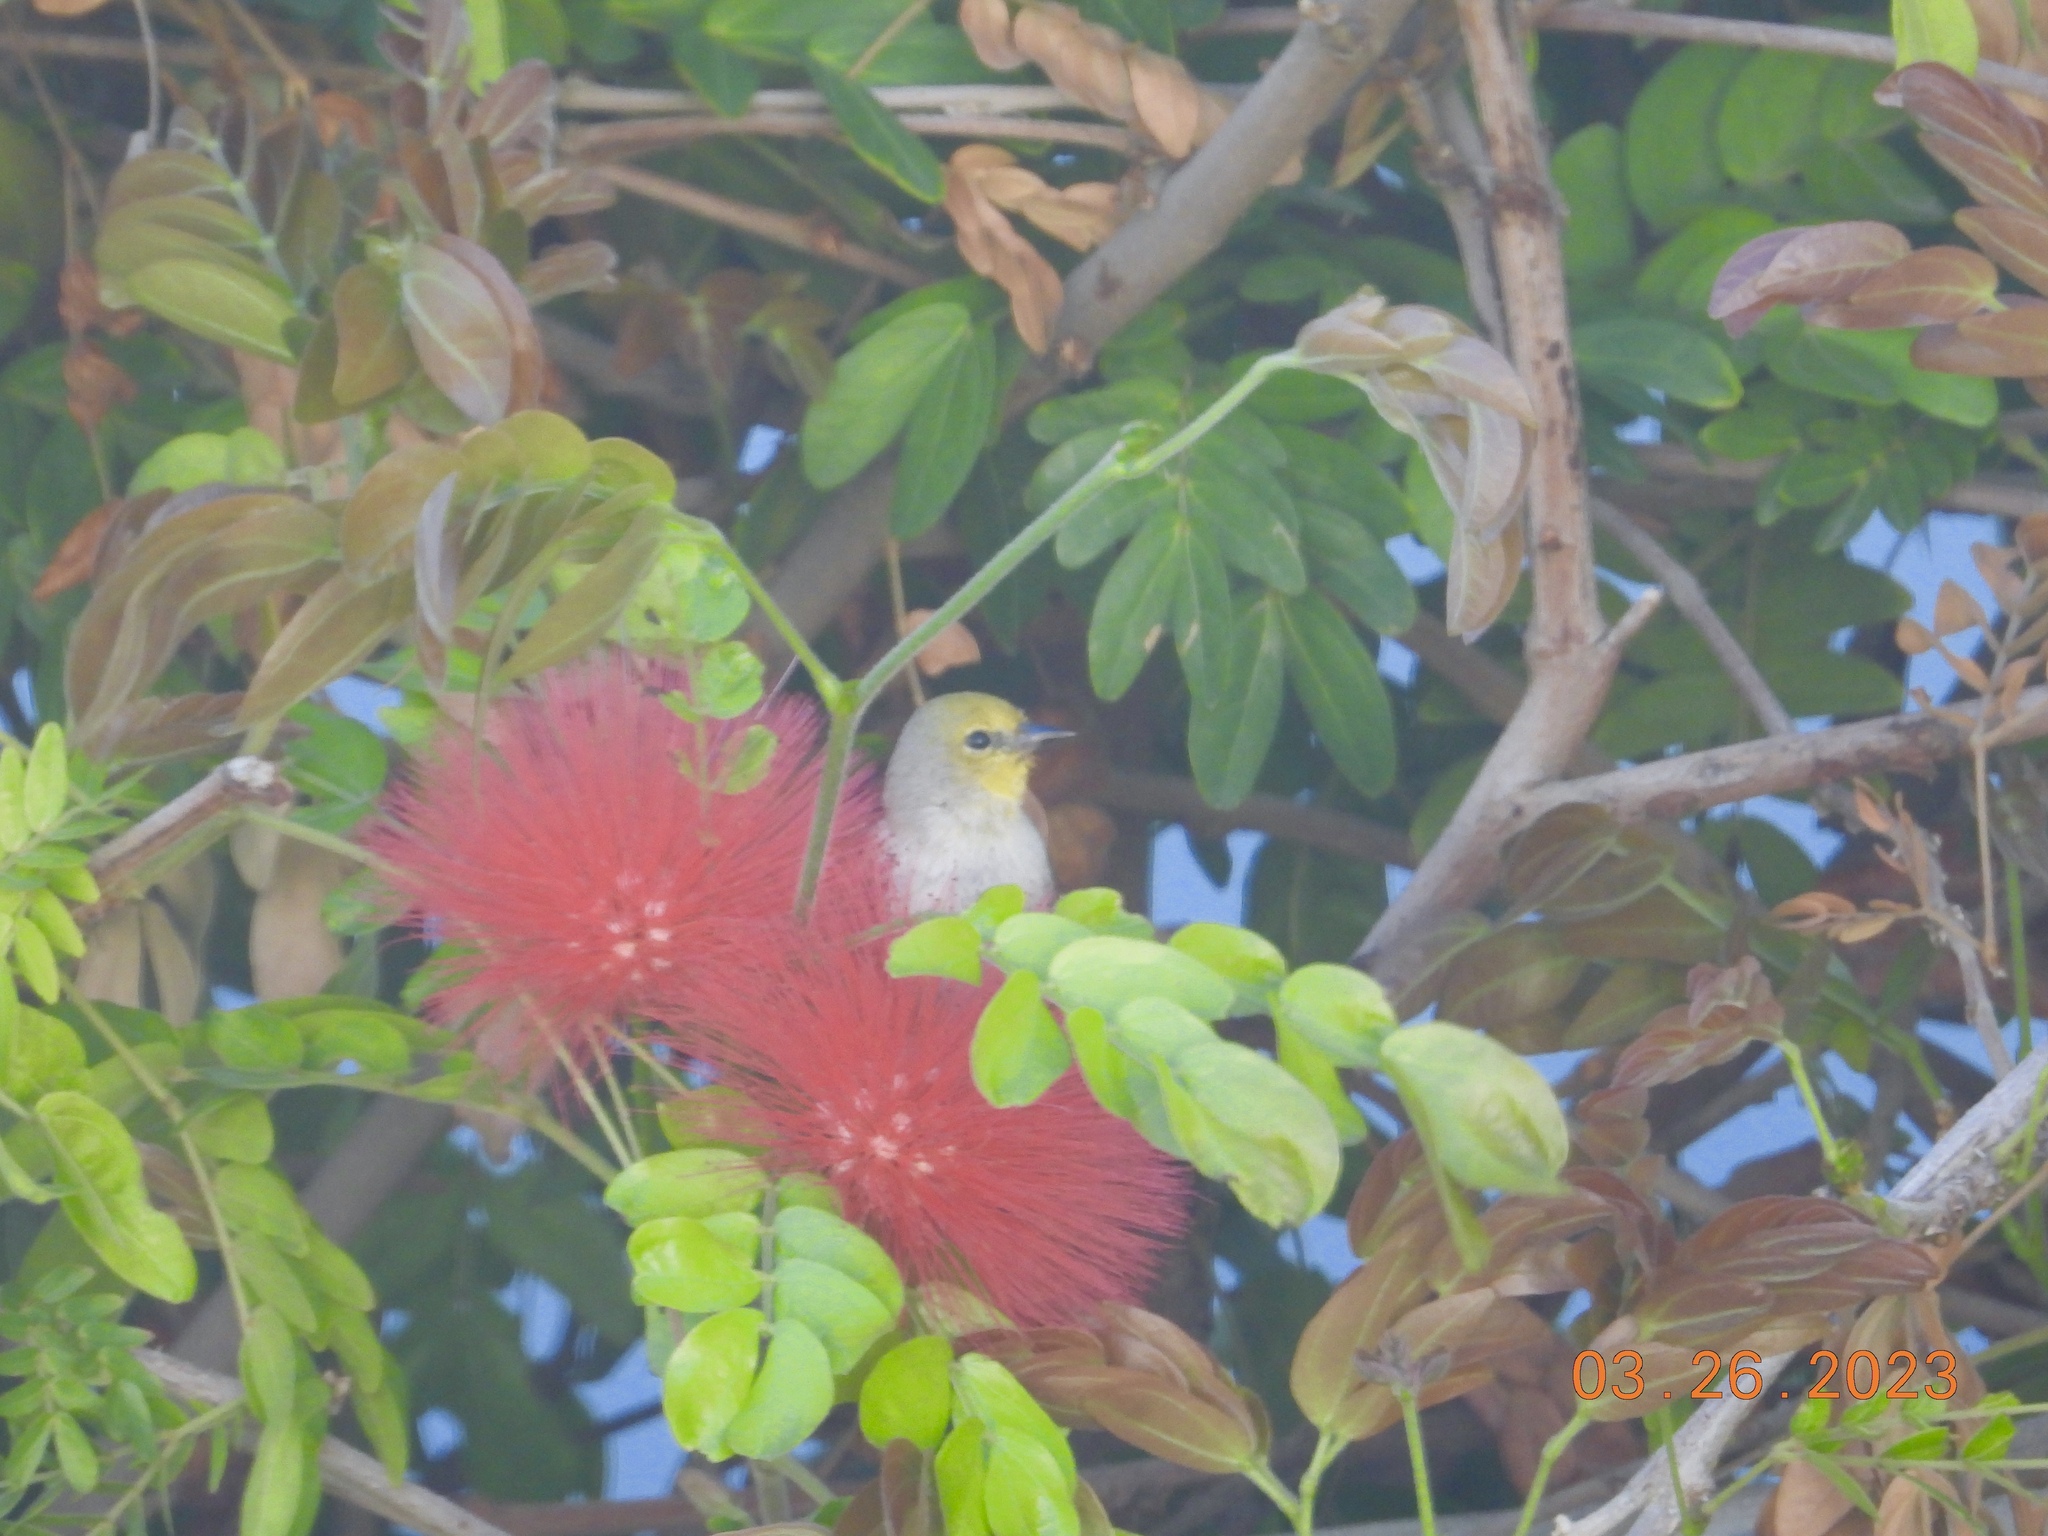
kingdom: Animalia
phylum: Chordata
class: Aves
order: Passeriformes
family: Remizidae
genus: Auriparus
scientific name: Auriparus flaviceps
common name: Verdin
